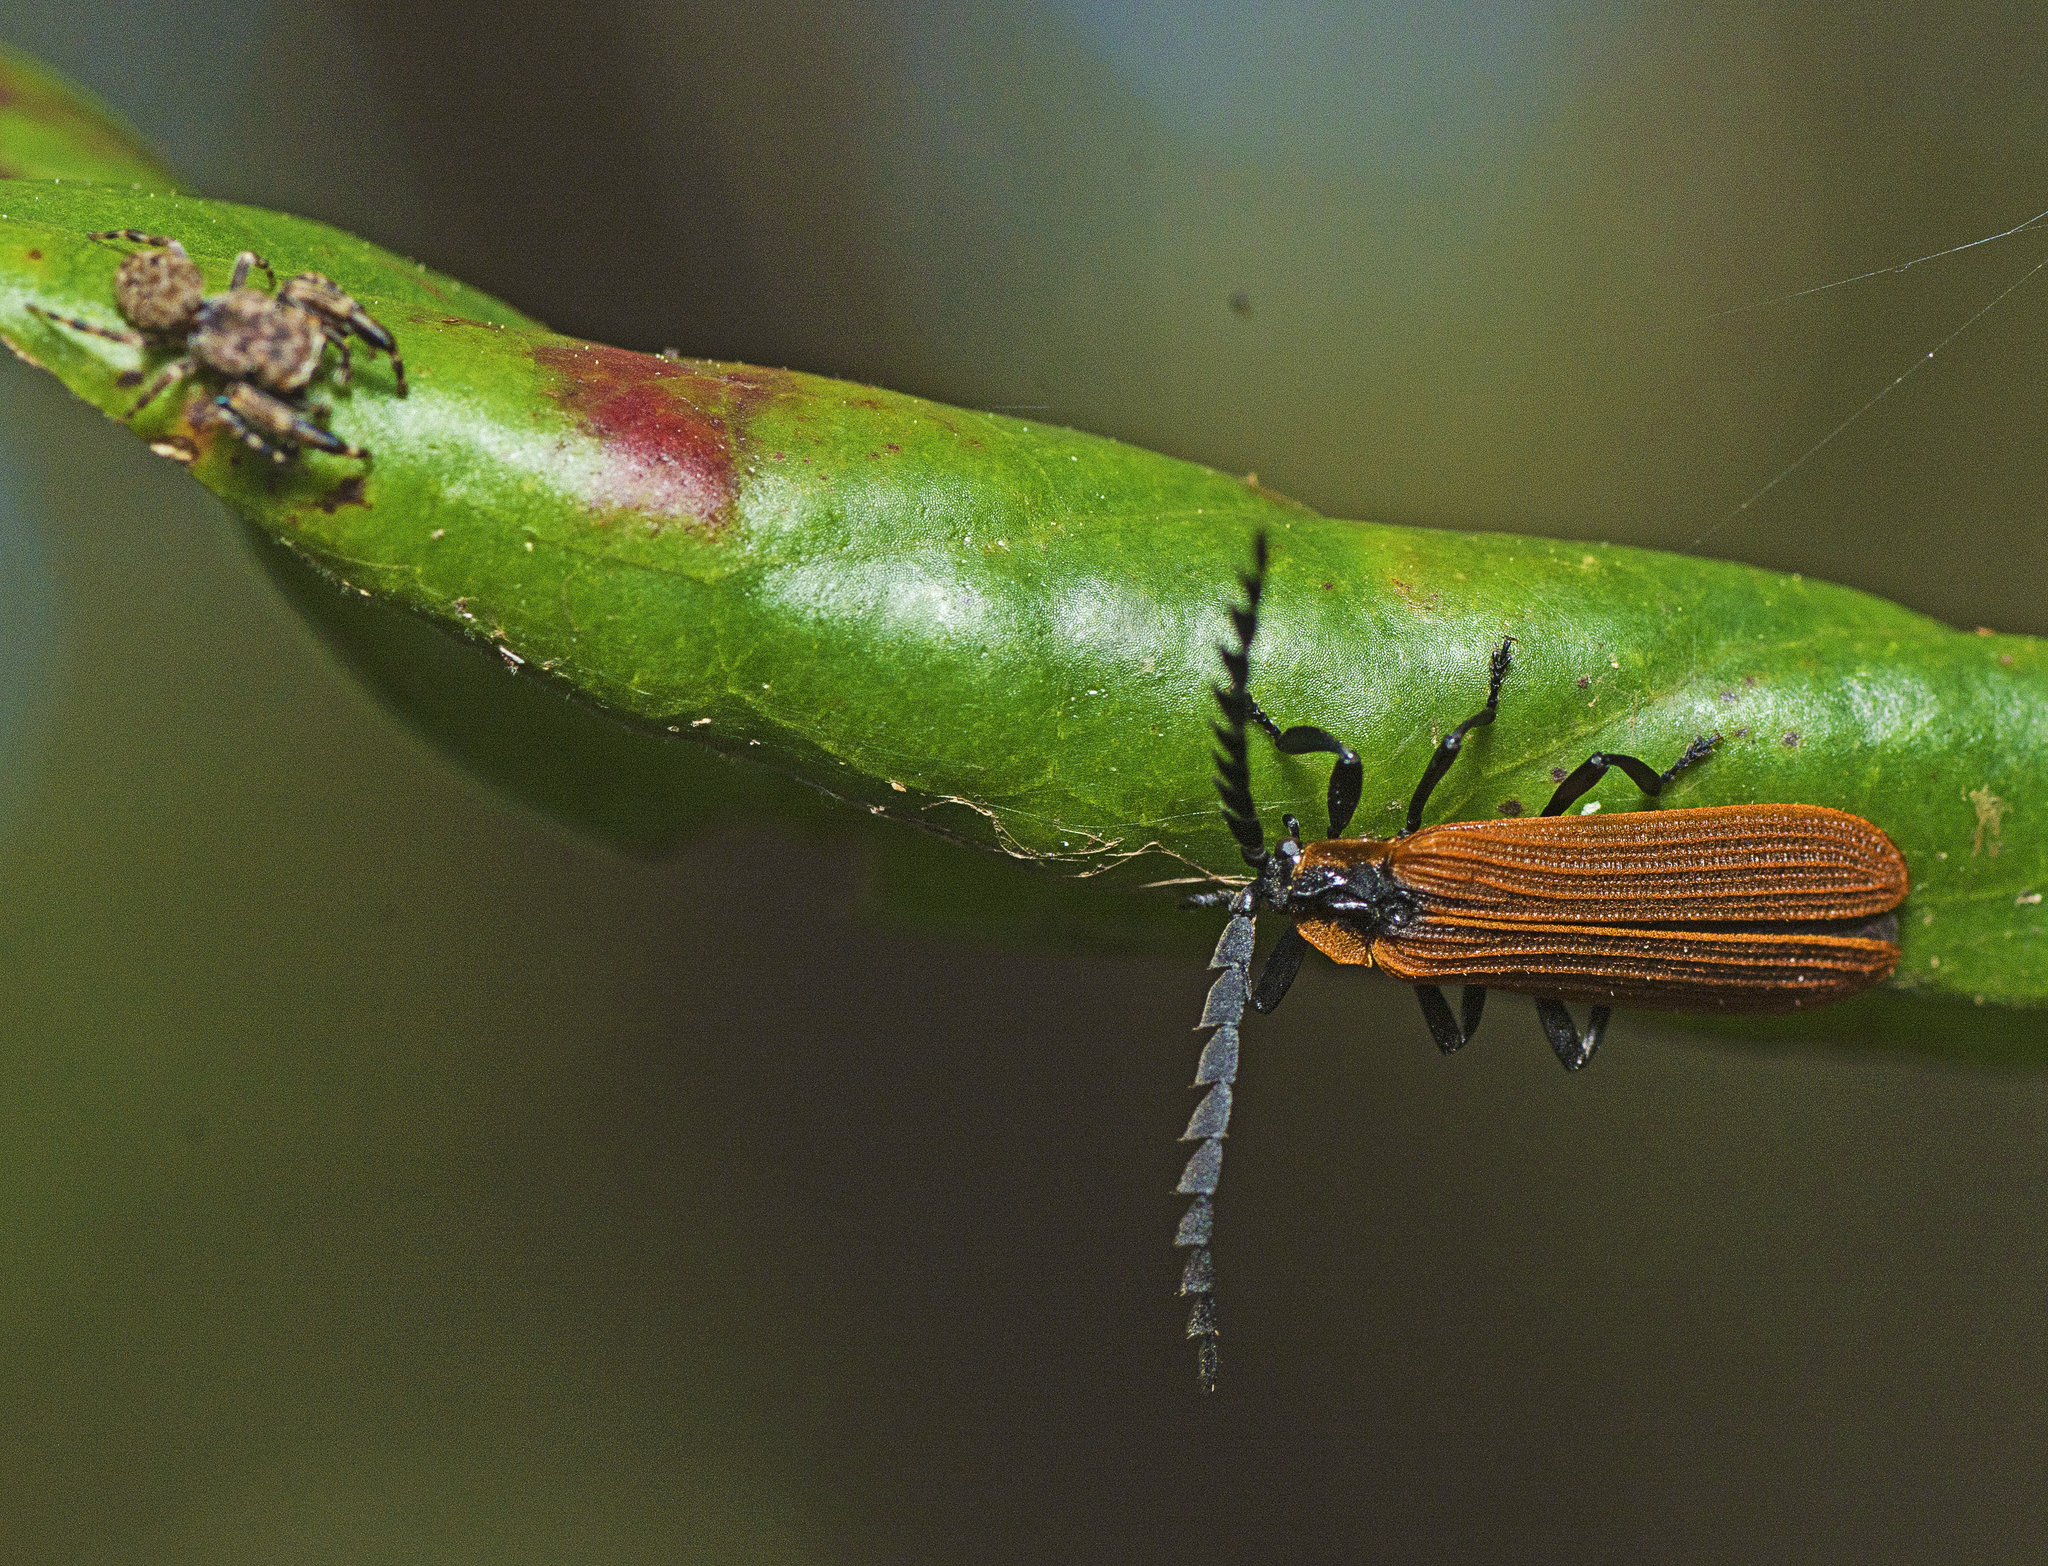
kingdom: Animalia
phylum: Arthropoda
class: Insecta
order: Coleoptera
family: Lycidae
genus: Trichalus
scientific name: Trichalus
